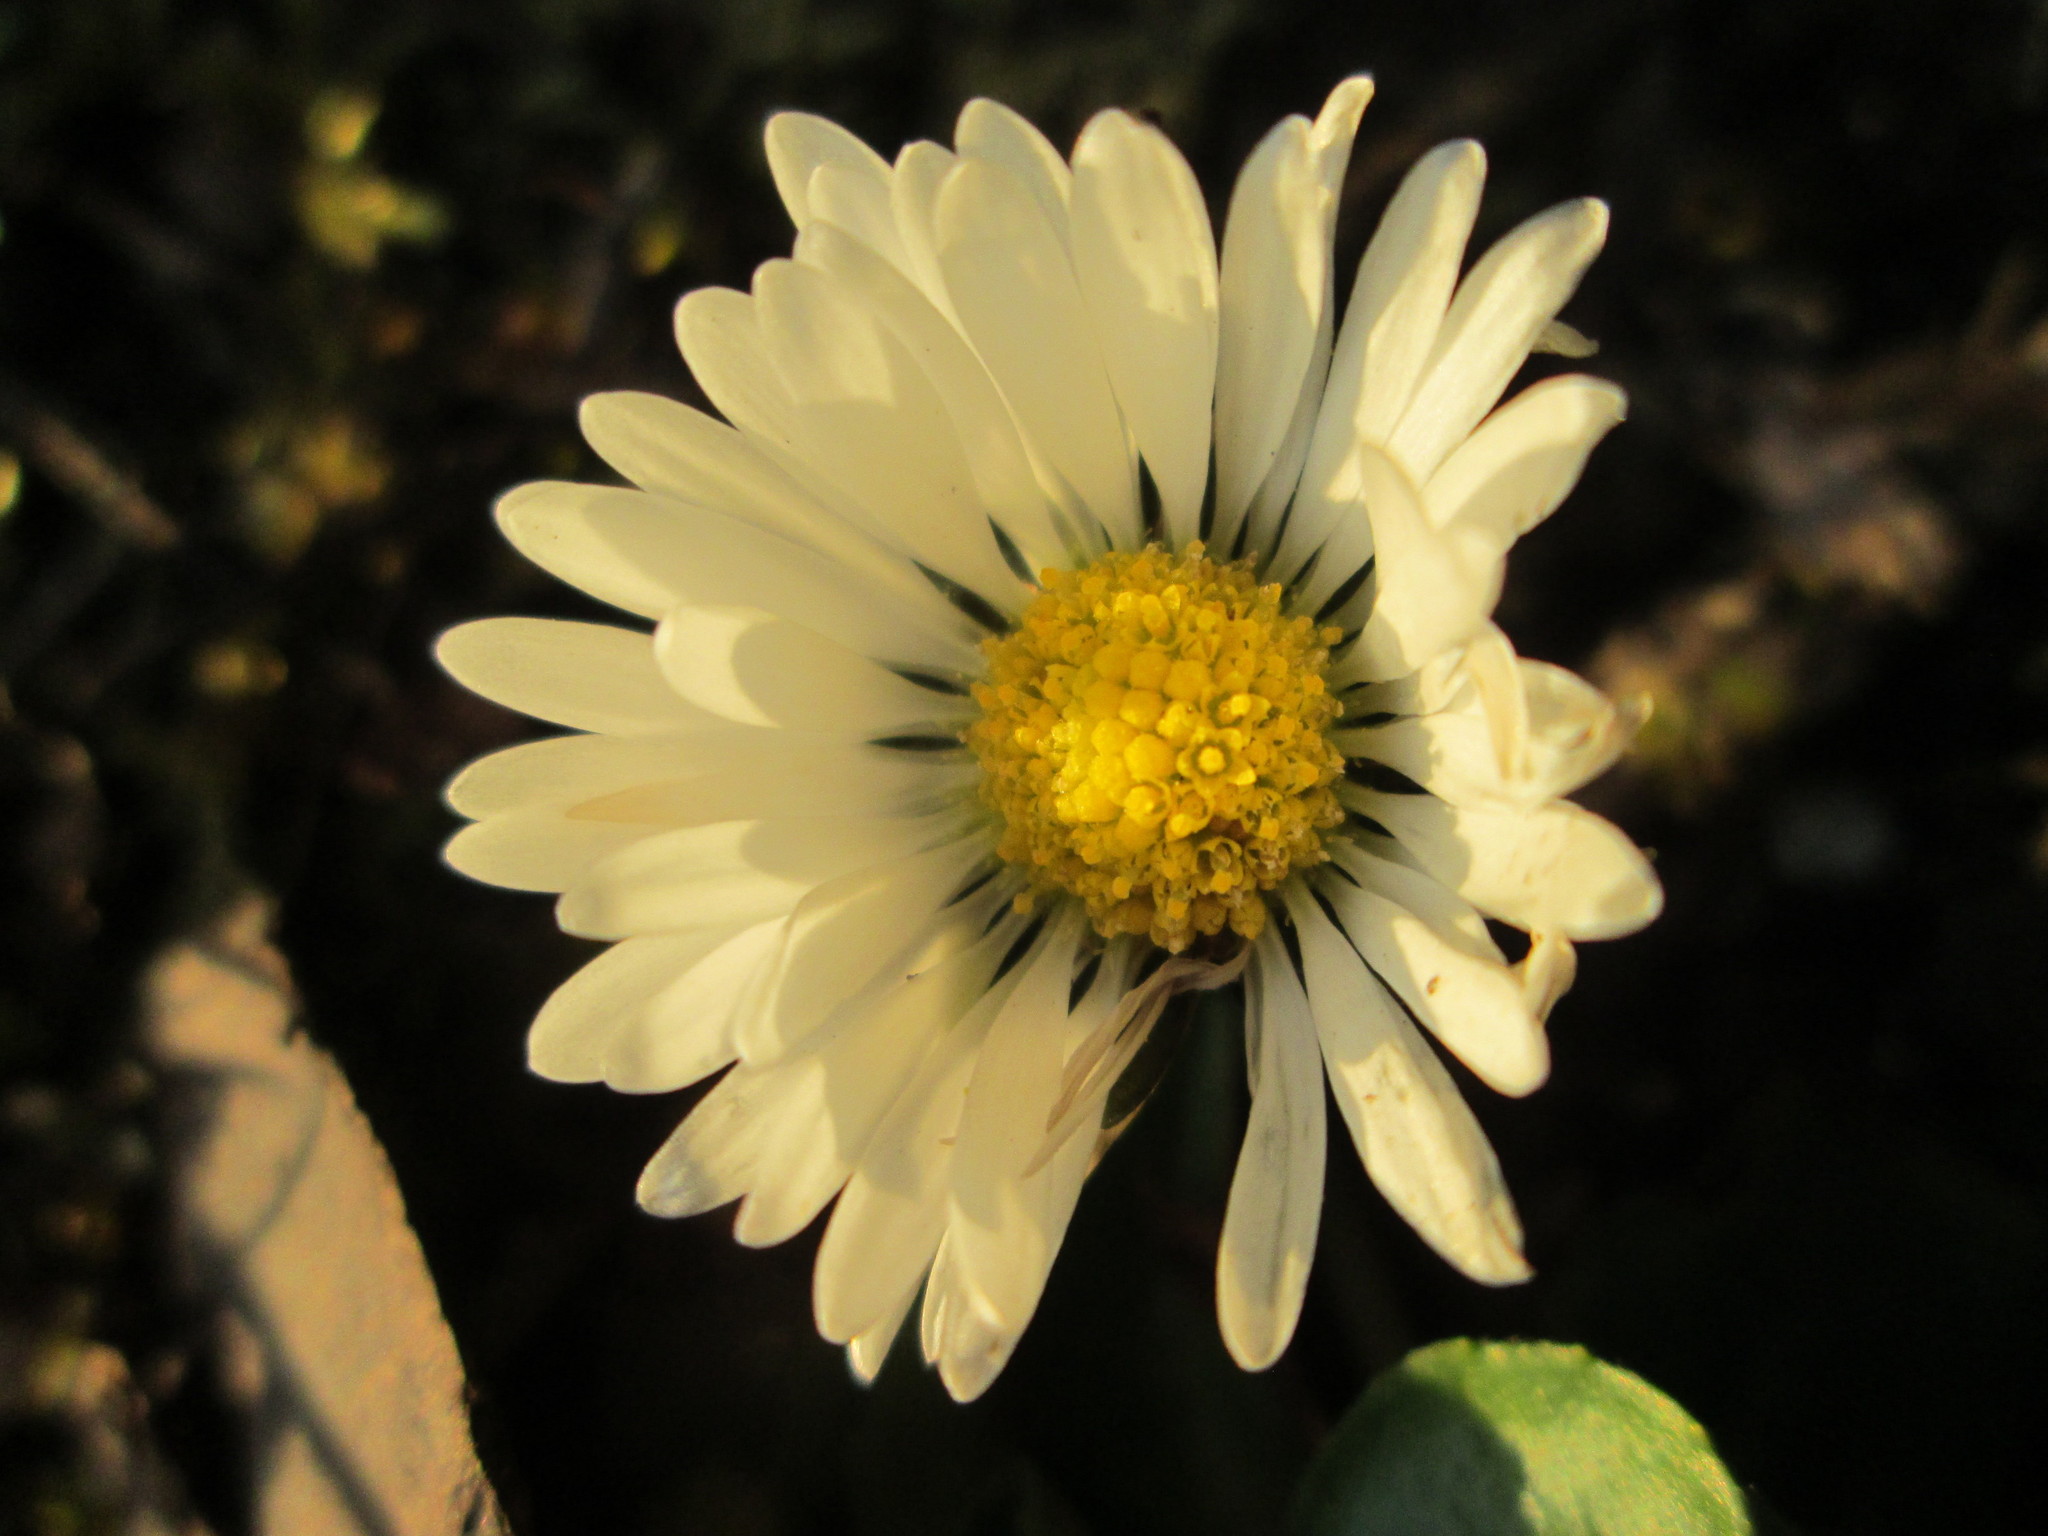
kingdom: Plantae
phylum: Tracheophyta
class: Magnoliopsida
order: Asterales
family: Asteraceae
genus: Bellis
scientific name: Bellis perennis
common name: Lawndaisy
